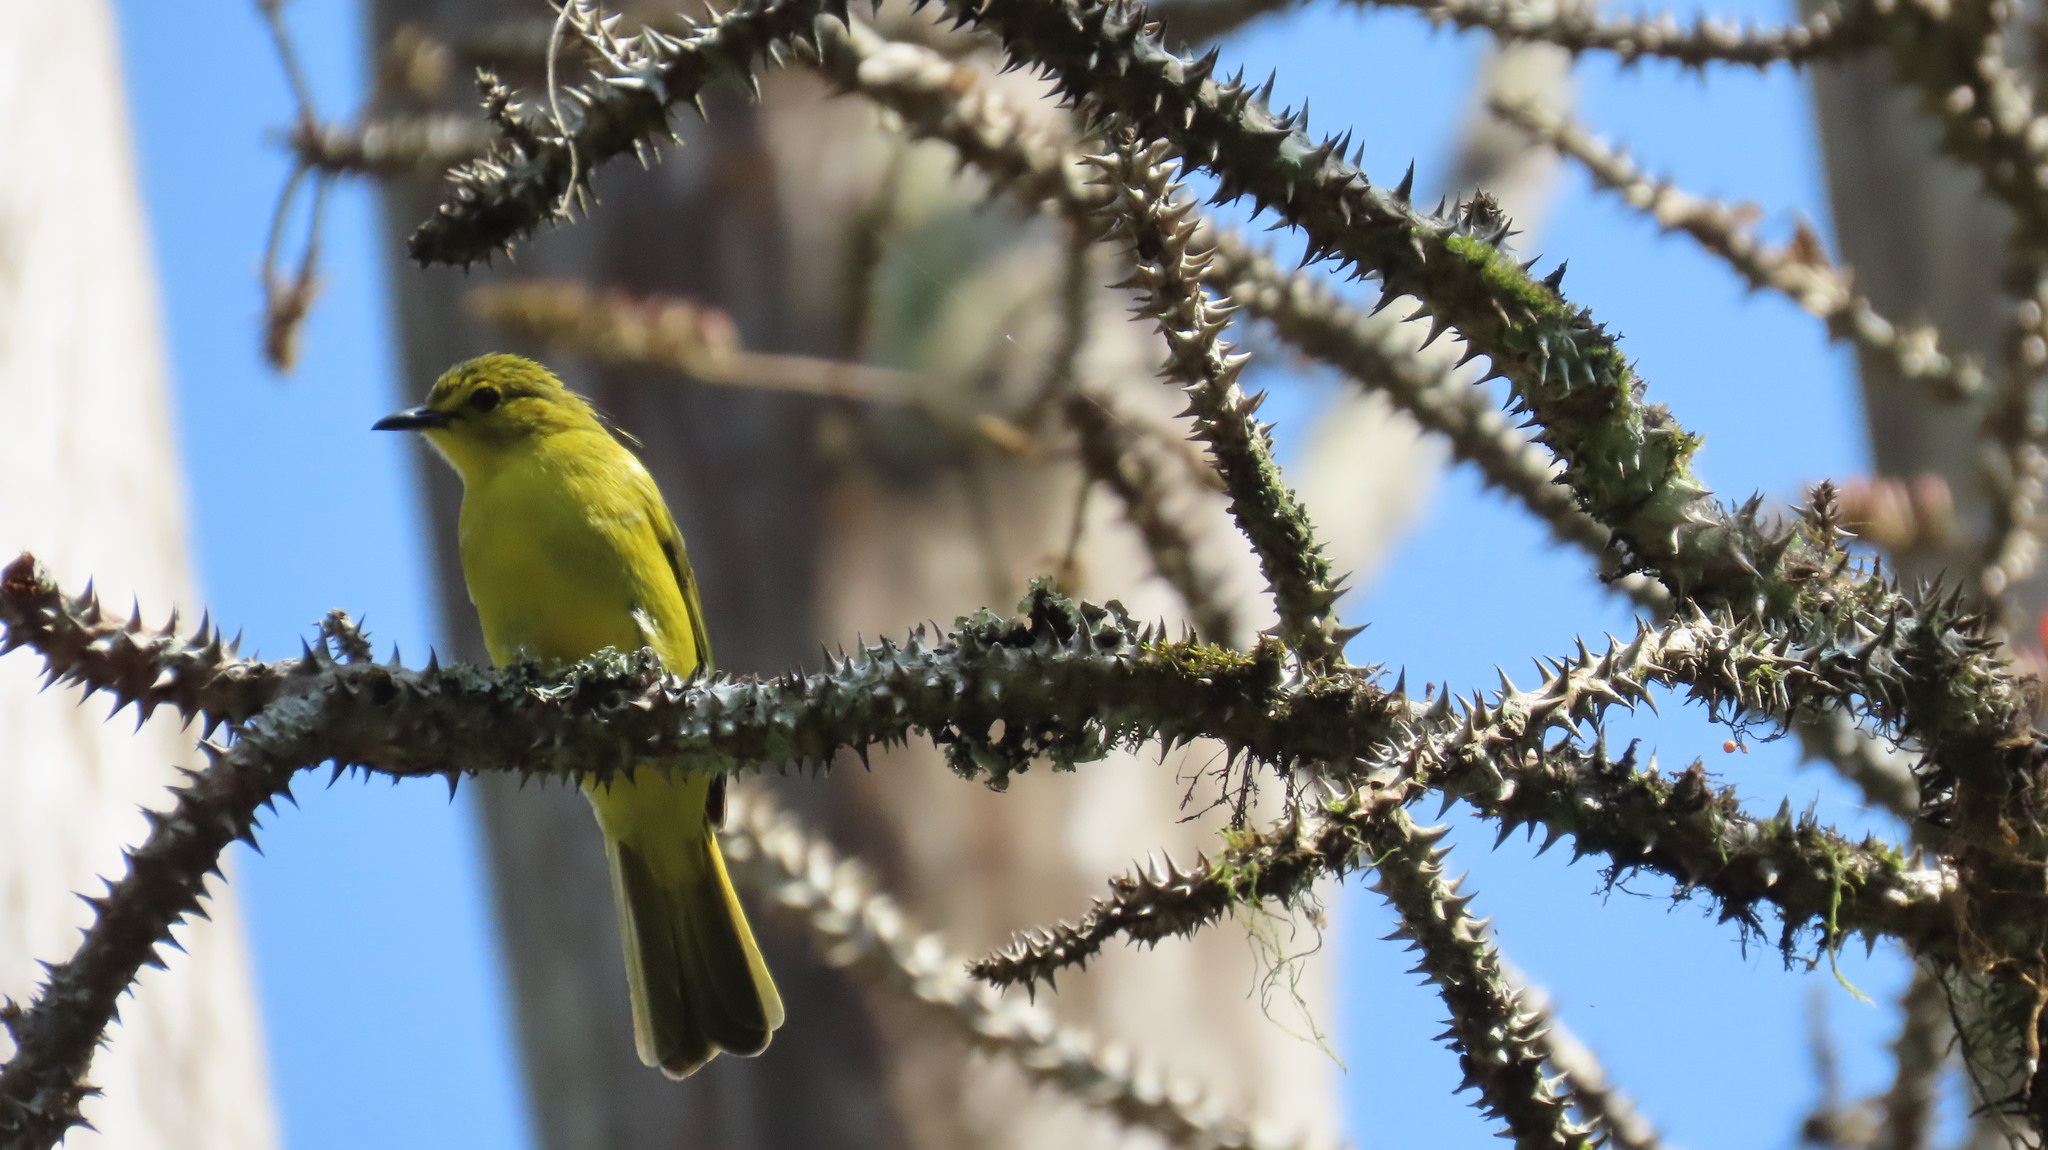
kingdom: Animalia
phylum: Chordata
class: Aves
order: Passeriformes
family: Pycnonotidae
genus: Acritillas
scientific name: Acritillas indica
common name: Yellow-browed bulbul
